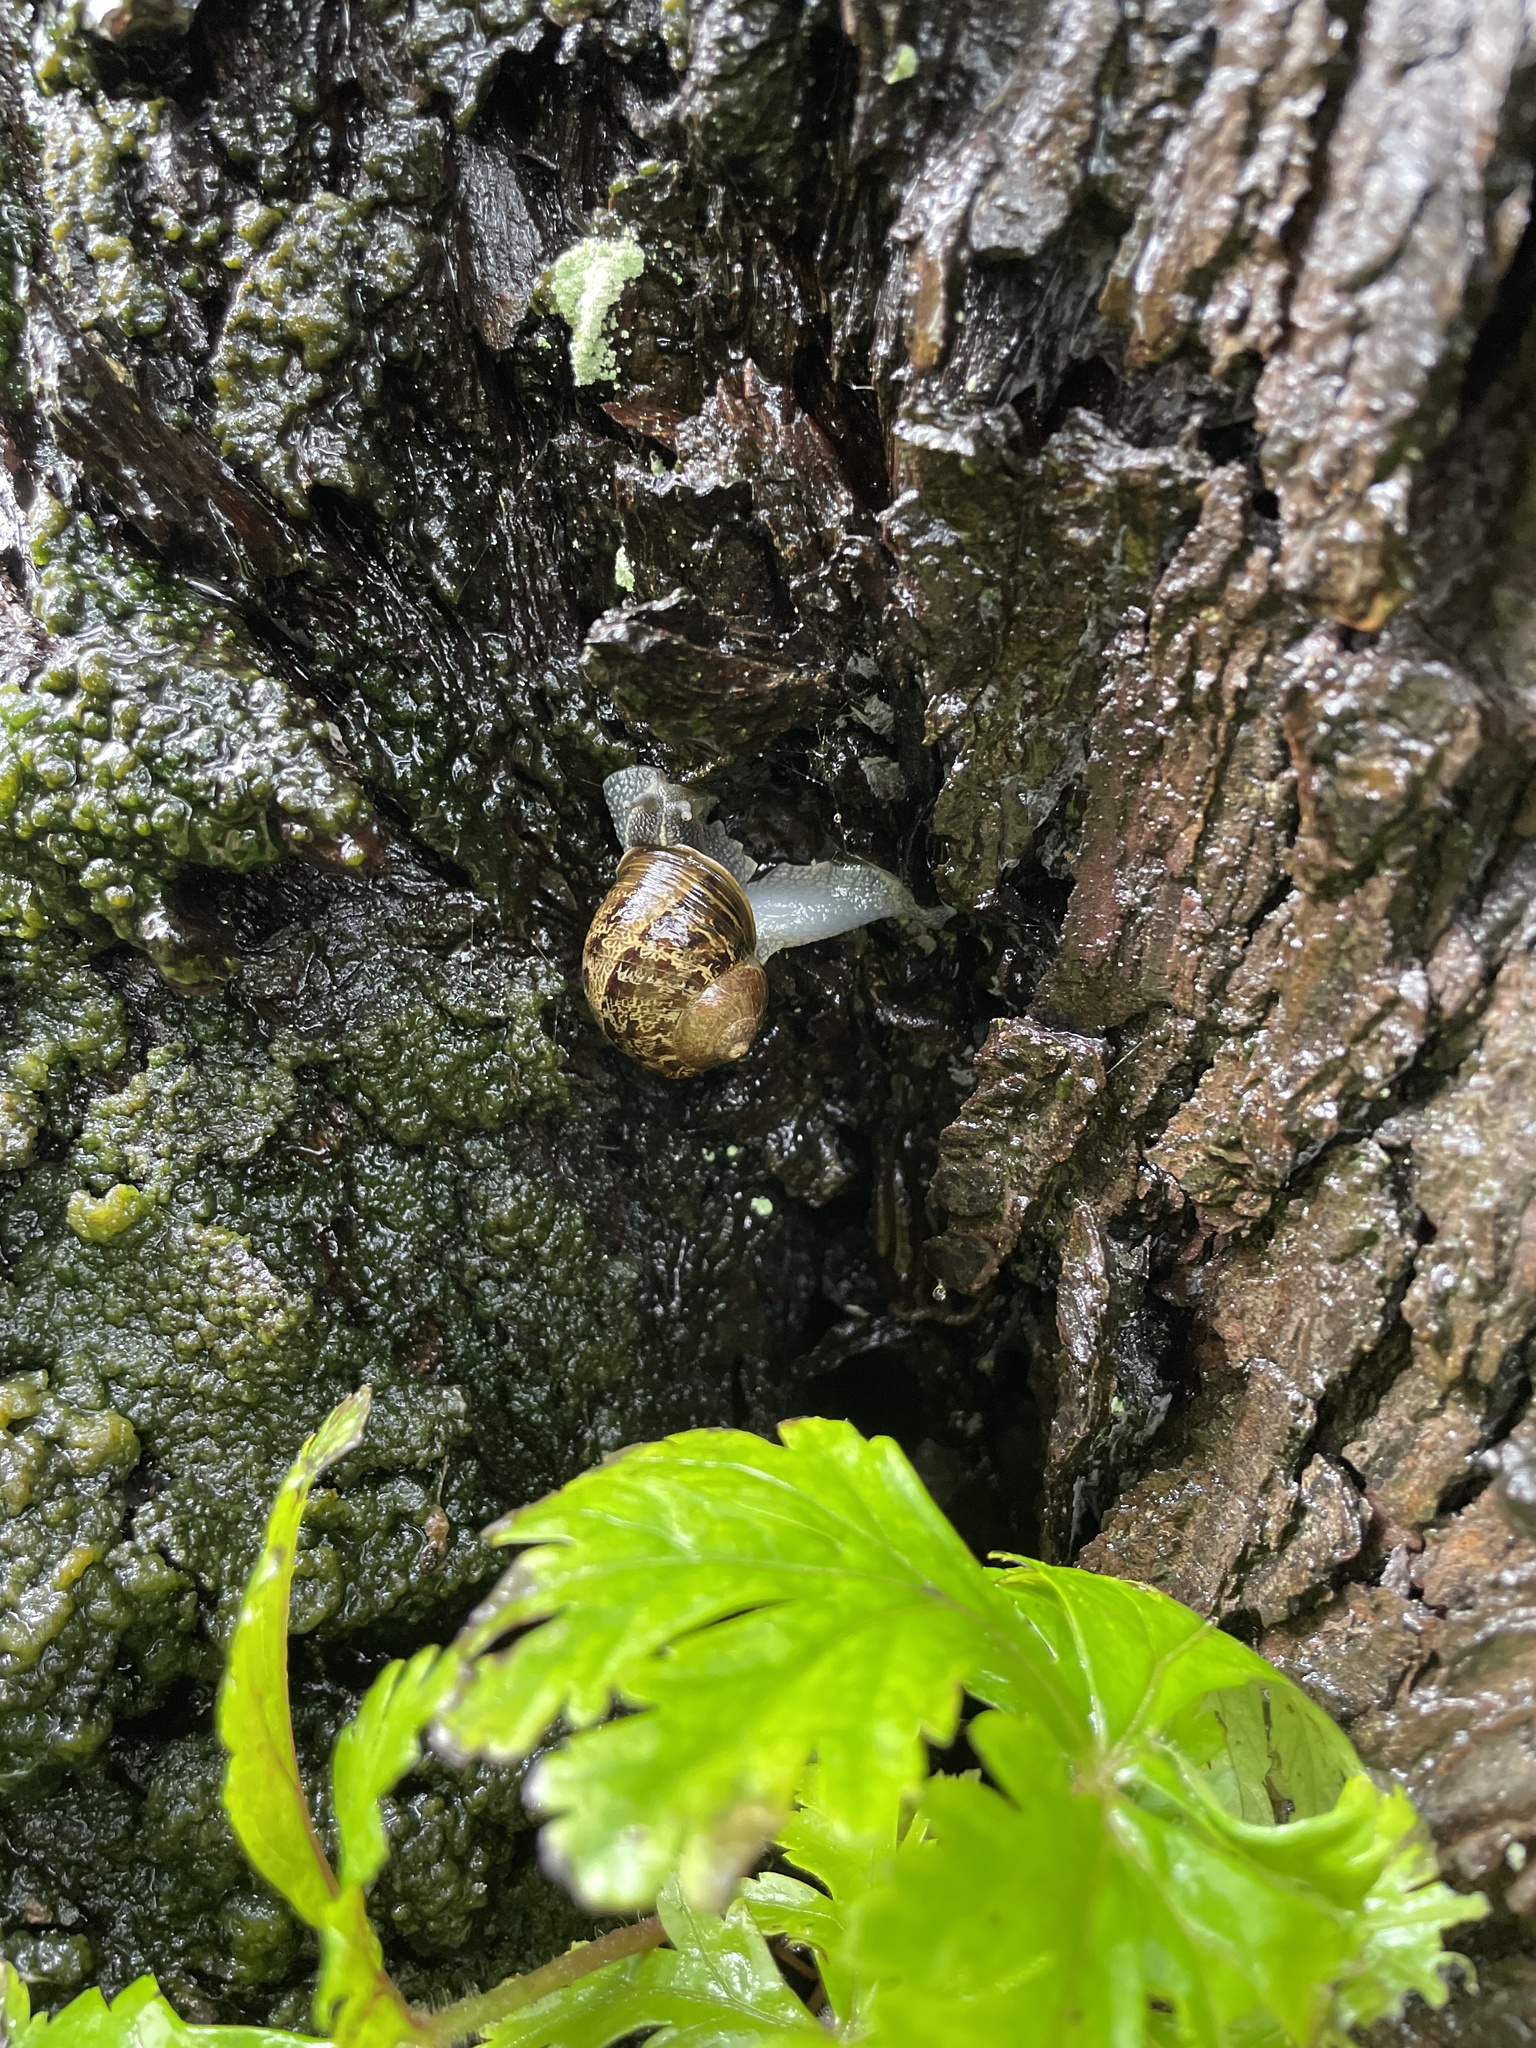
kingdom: Animalia
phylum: Mollusca
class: Gastropoda
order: Stylommatophora
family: Helicidae
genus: Cornu
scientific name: Cornu aspersum
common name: Brown garden snail
